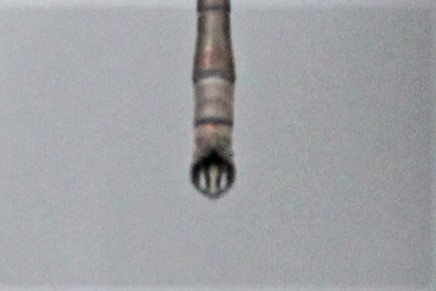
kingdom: Animalia
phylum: Arthropoda
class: Insecta
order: Odonata
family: Lestidae
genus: Lestes
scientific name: Lestes rectangularis
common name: Slender spreadwing
